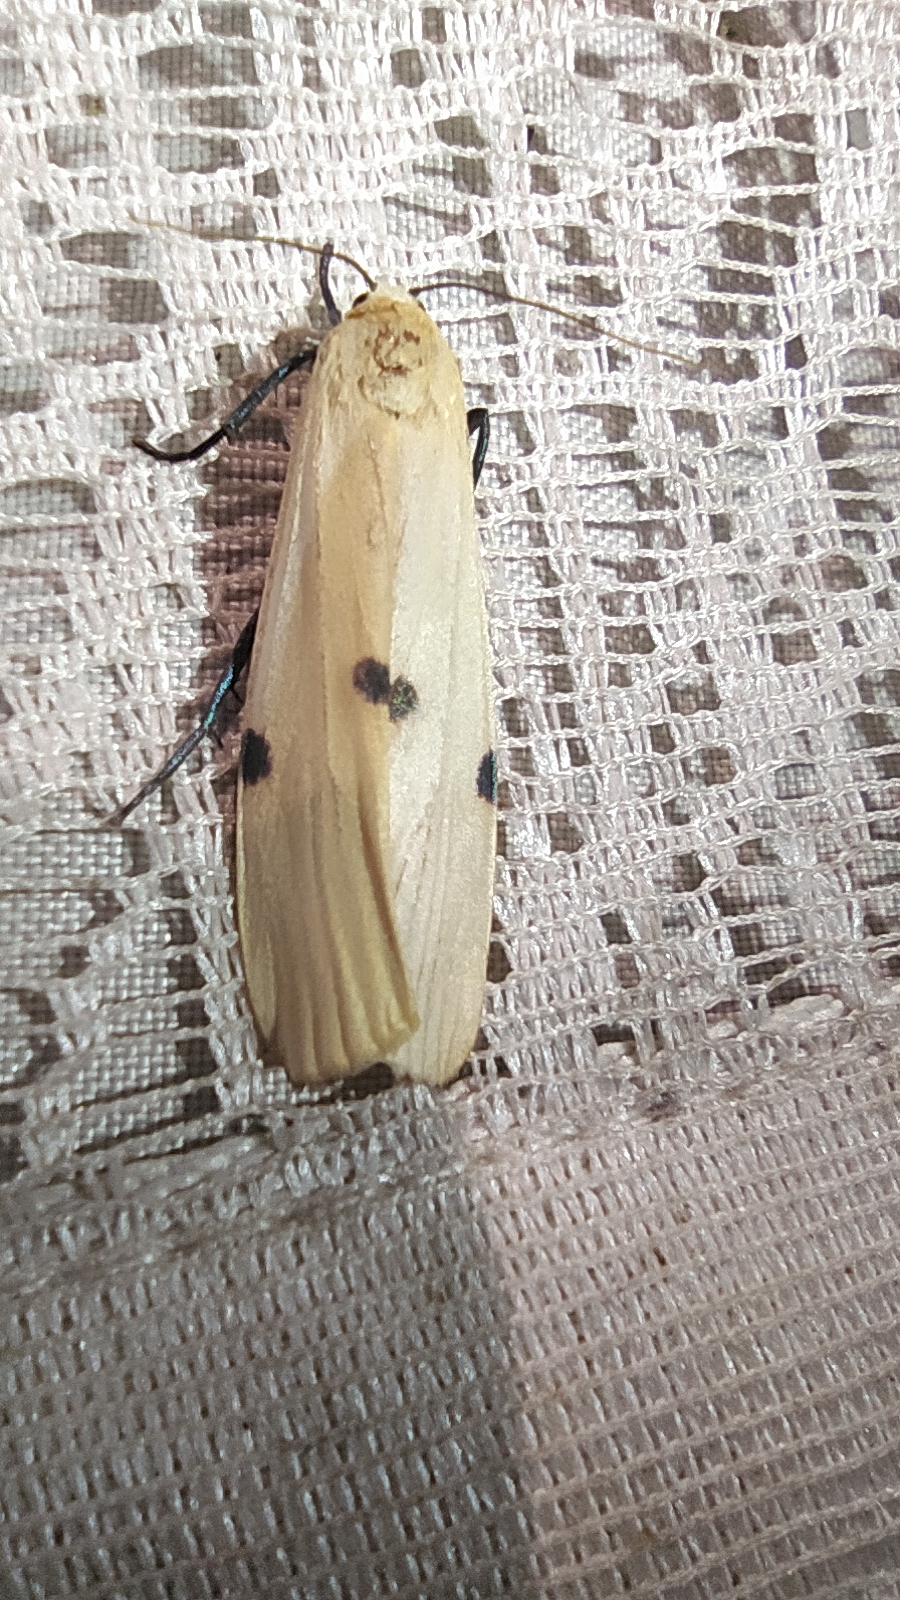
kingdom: Animalia
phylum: Arthropoda
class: Insecta
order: Lepidoptera
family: Erebidae
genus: Lithosia
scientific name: Lithosia quadra
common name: Four-spotted footman
